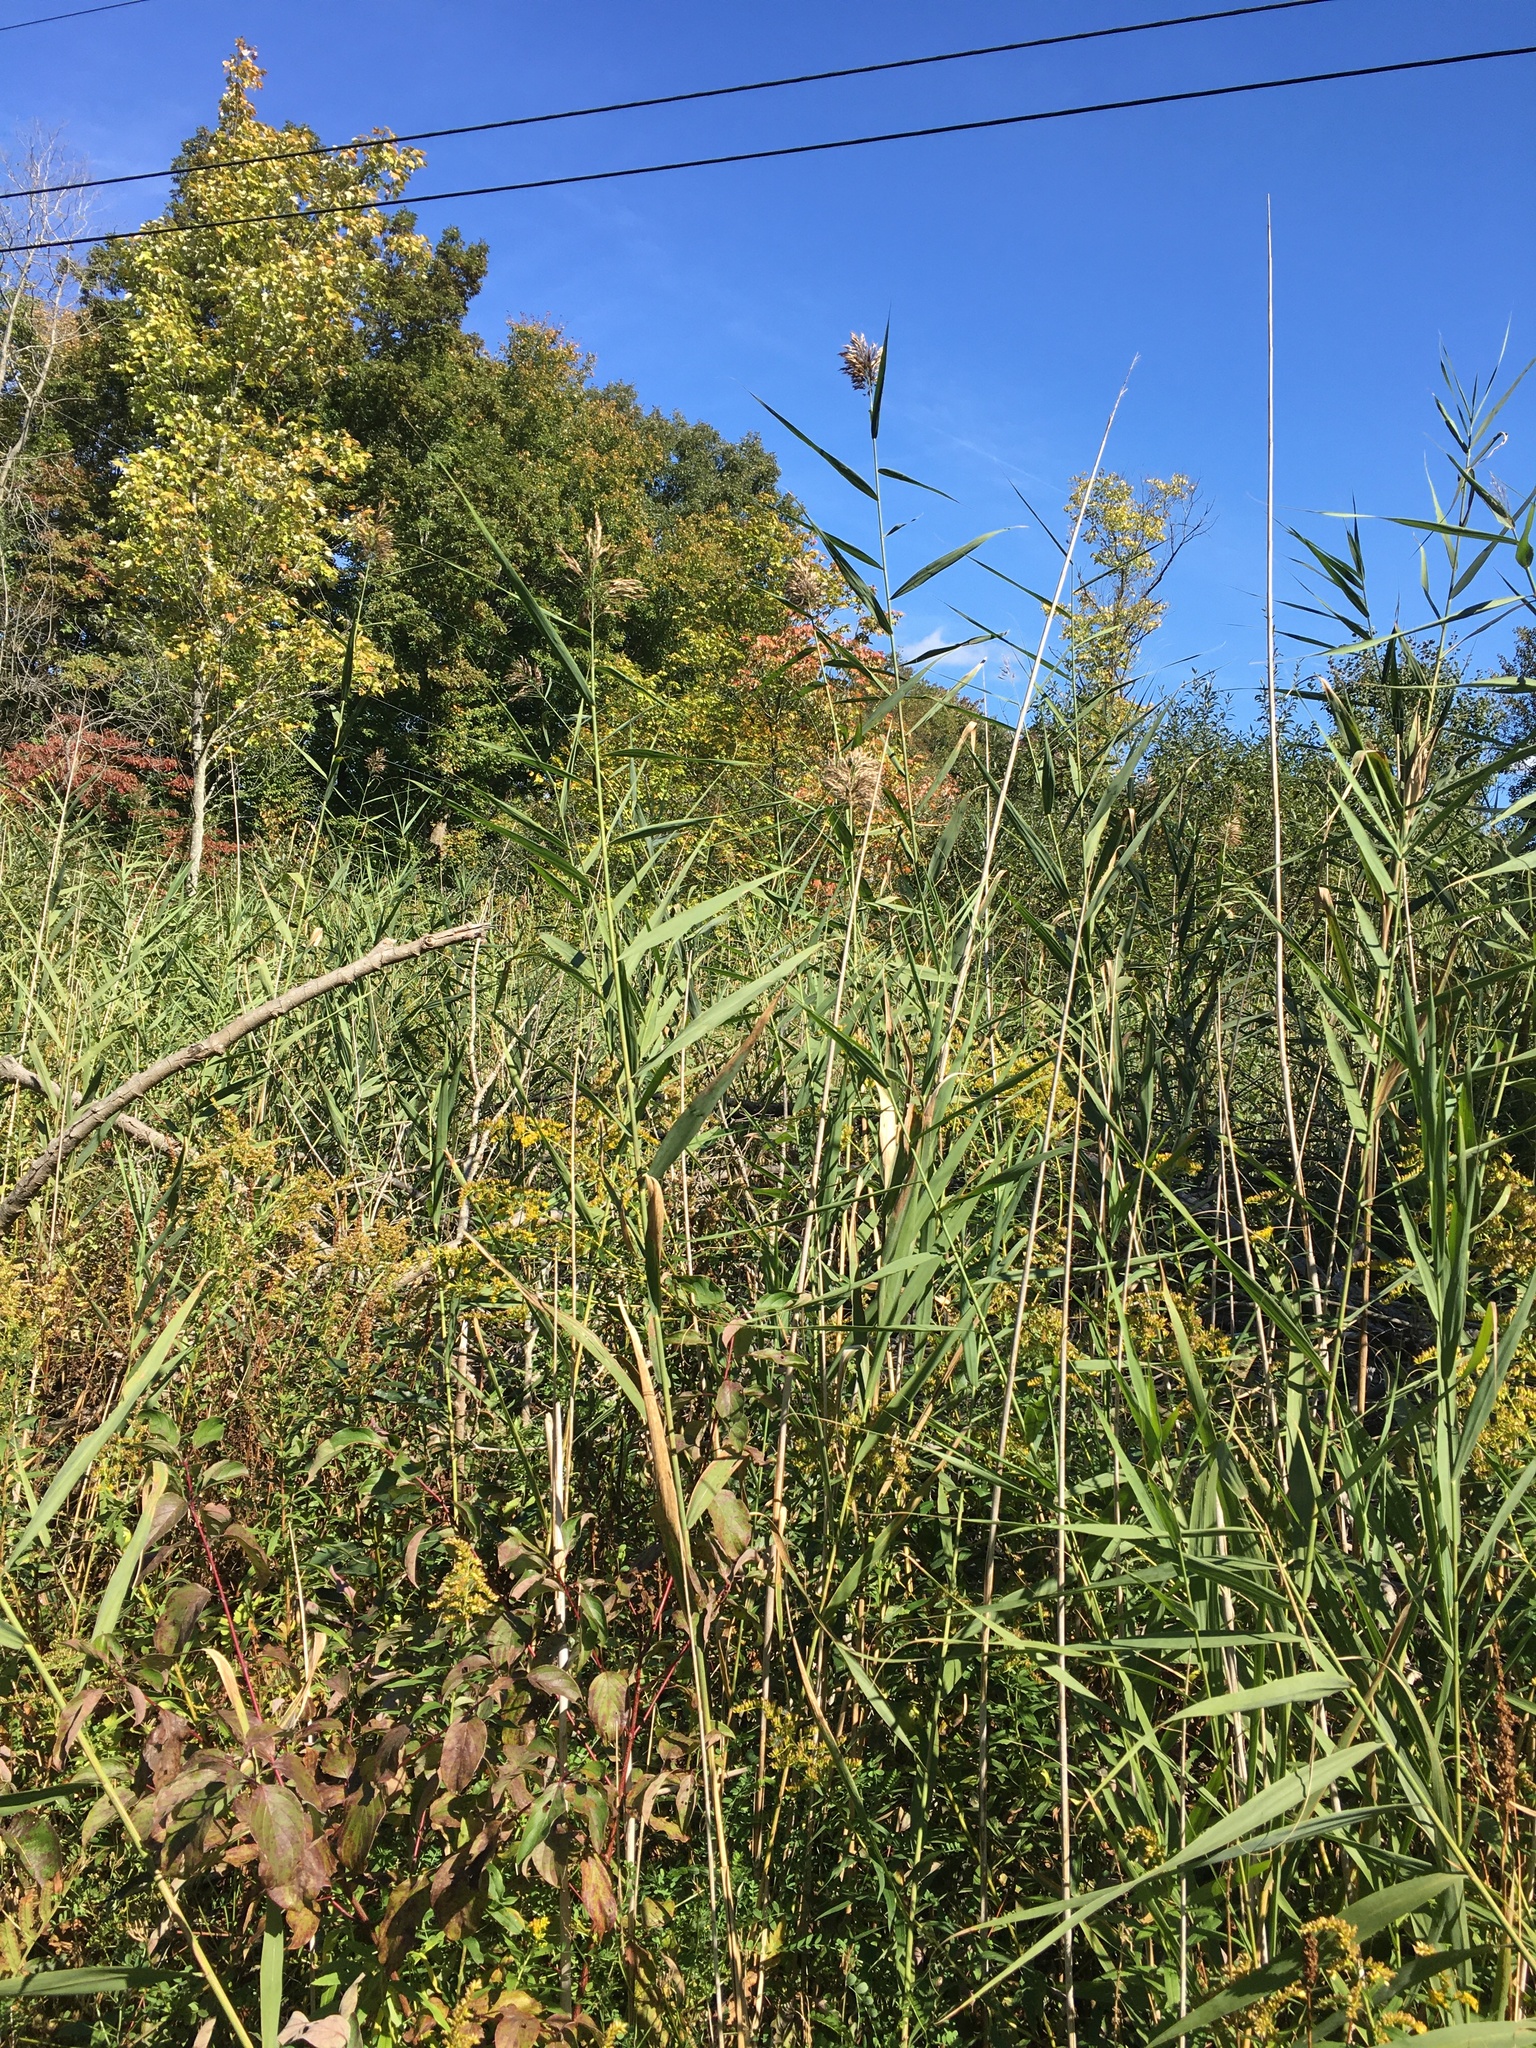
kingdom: Plantae
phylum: Tracheophyta
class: Liliopsida
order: Poales
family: Poaceae
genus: Phragmites
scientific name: Phragmites australis
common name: Common reed
